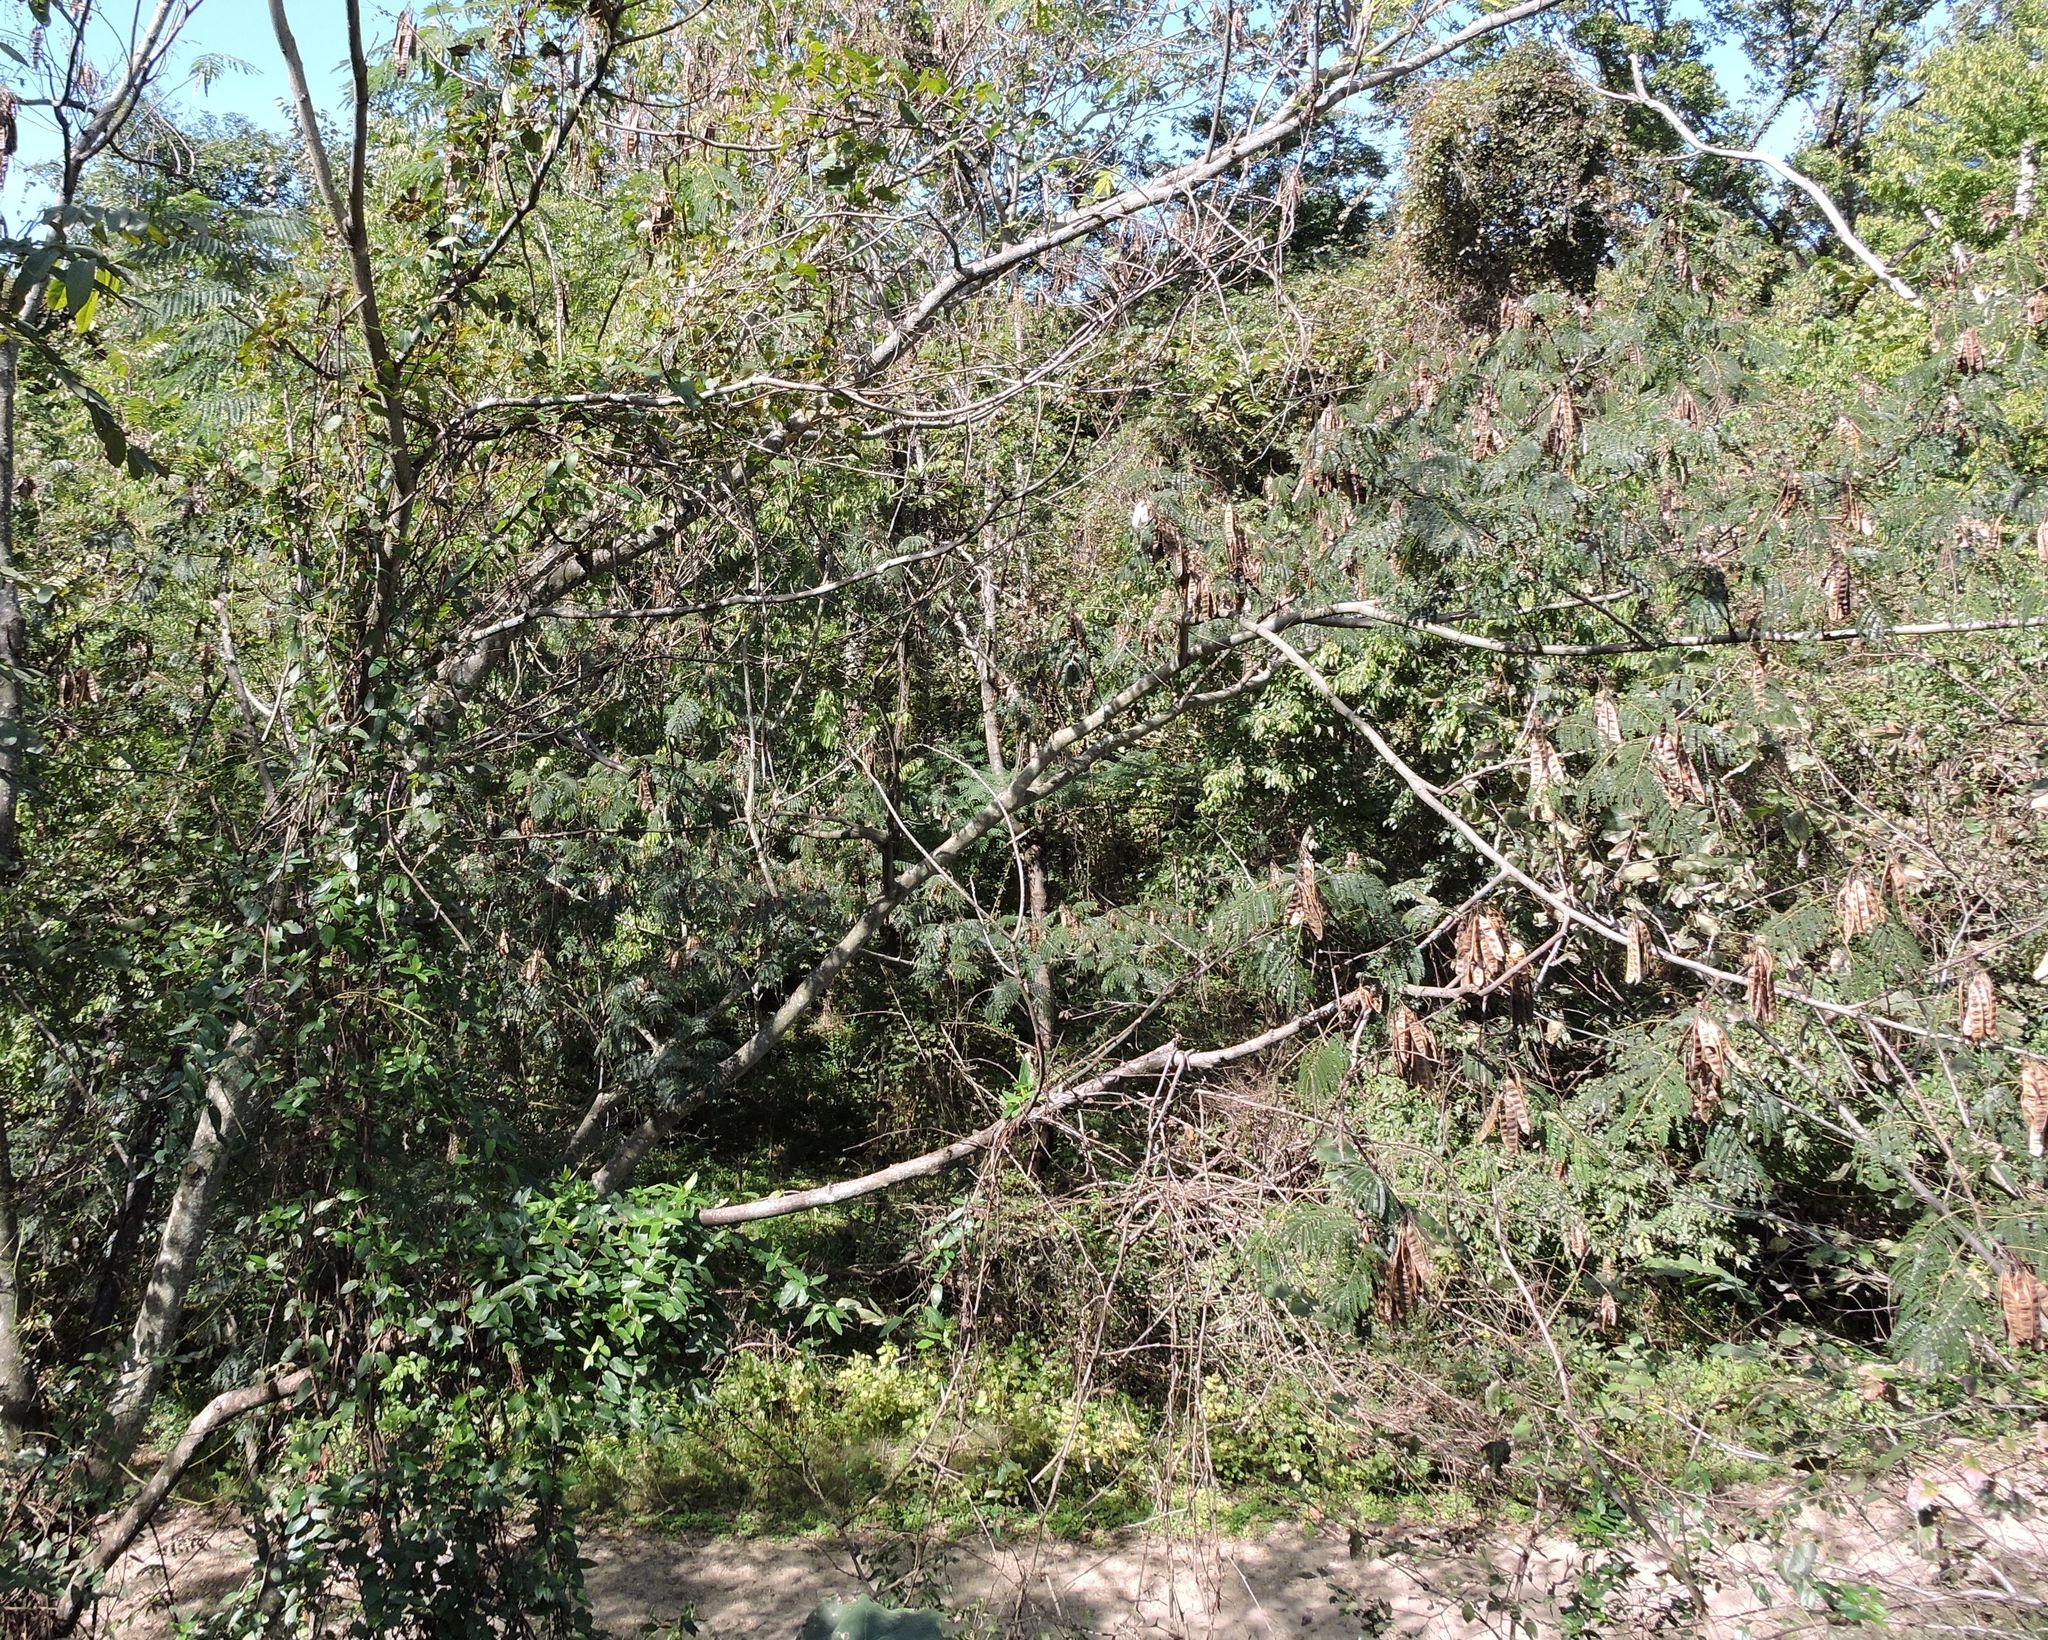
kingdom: Plantae
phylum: Tracheophyta
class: Magnoliopsida
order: Fabales
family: Fabaceae
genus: Albizia
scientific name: Albizia julibrissin
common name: Silktree
